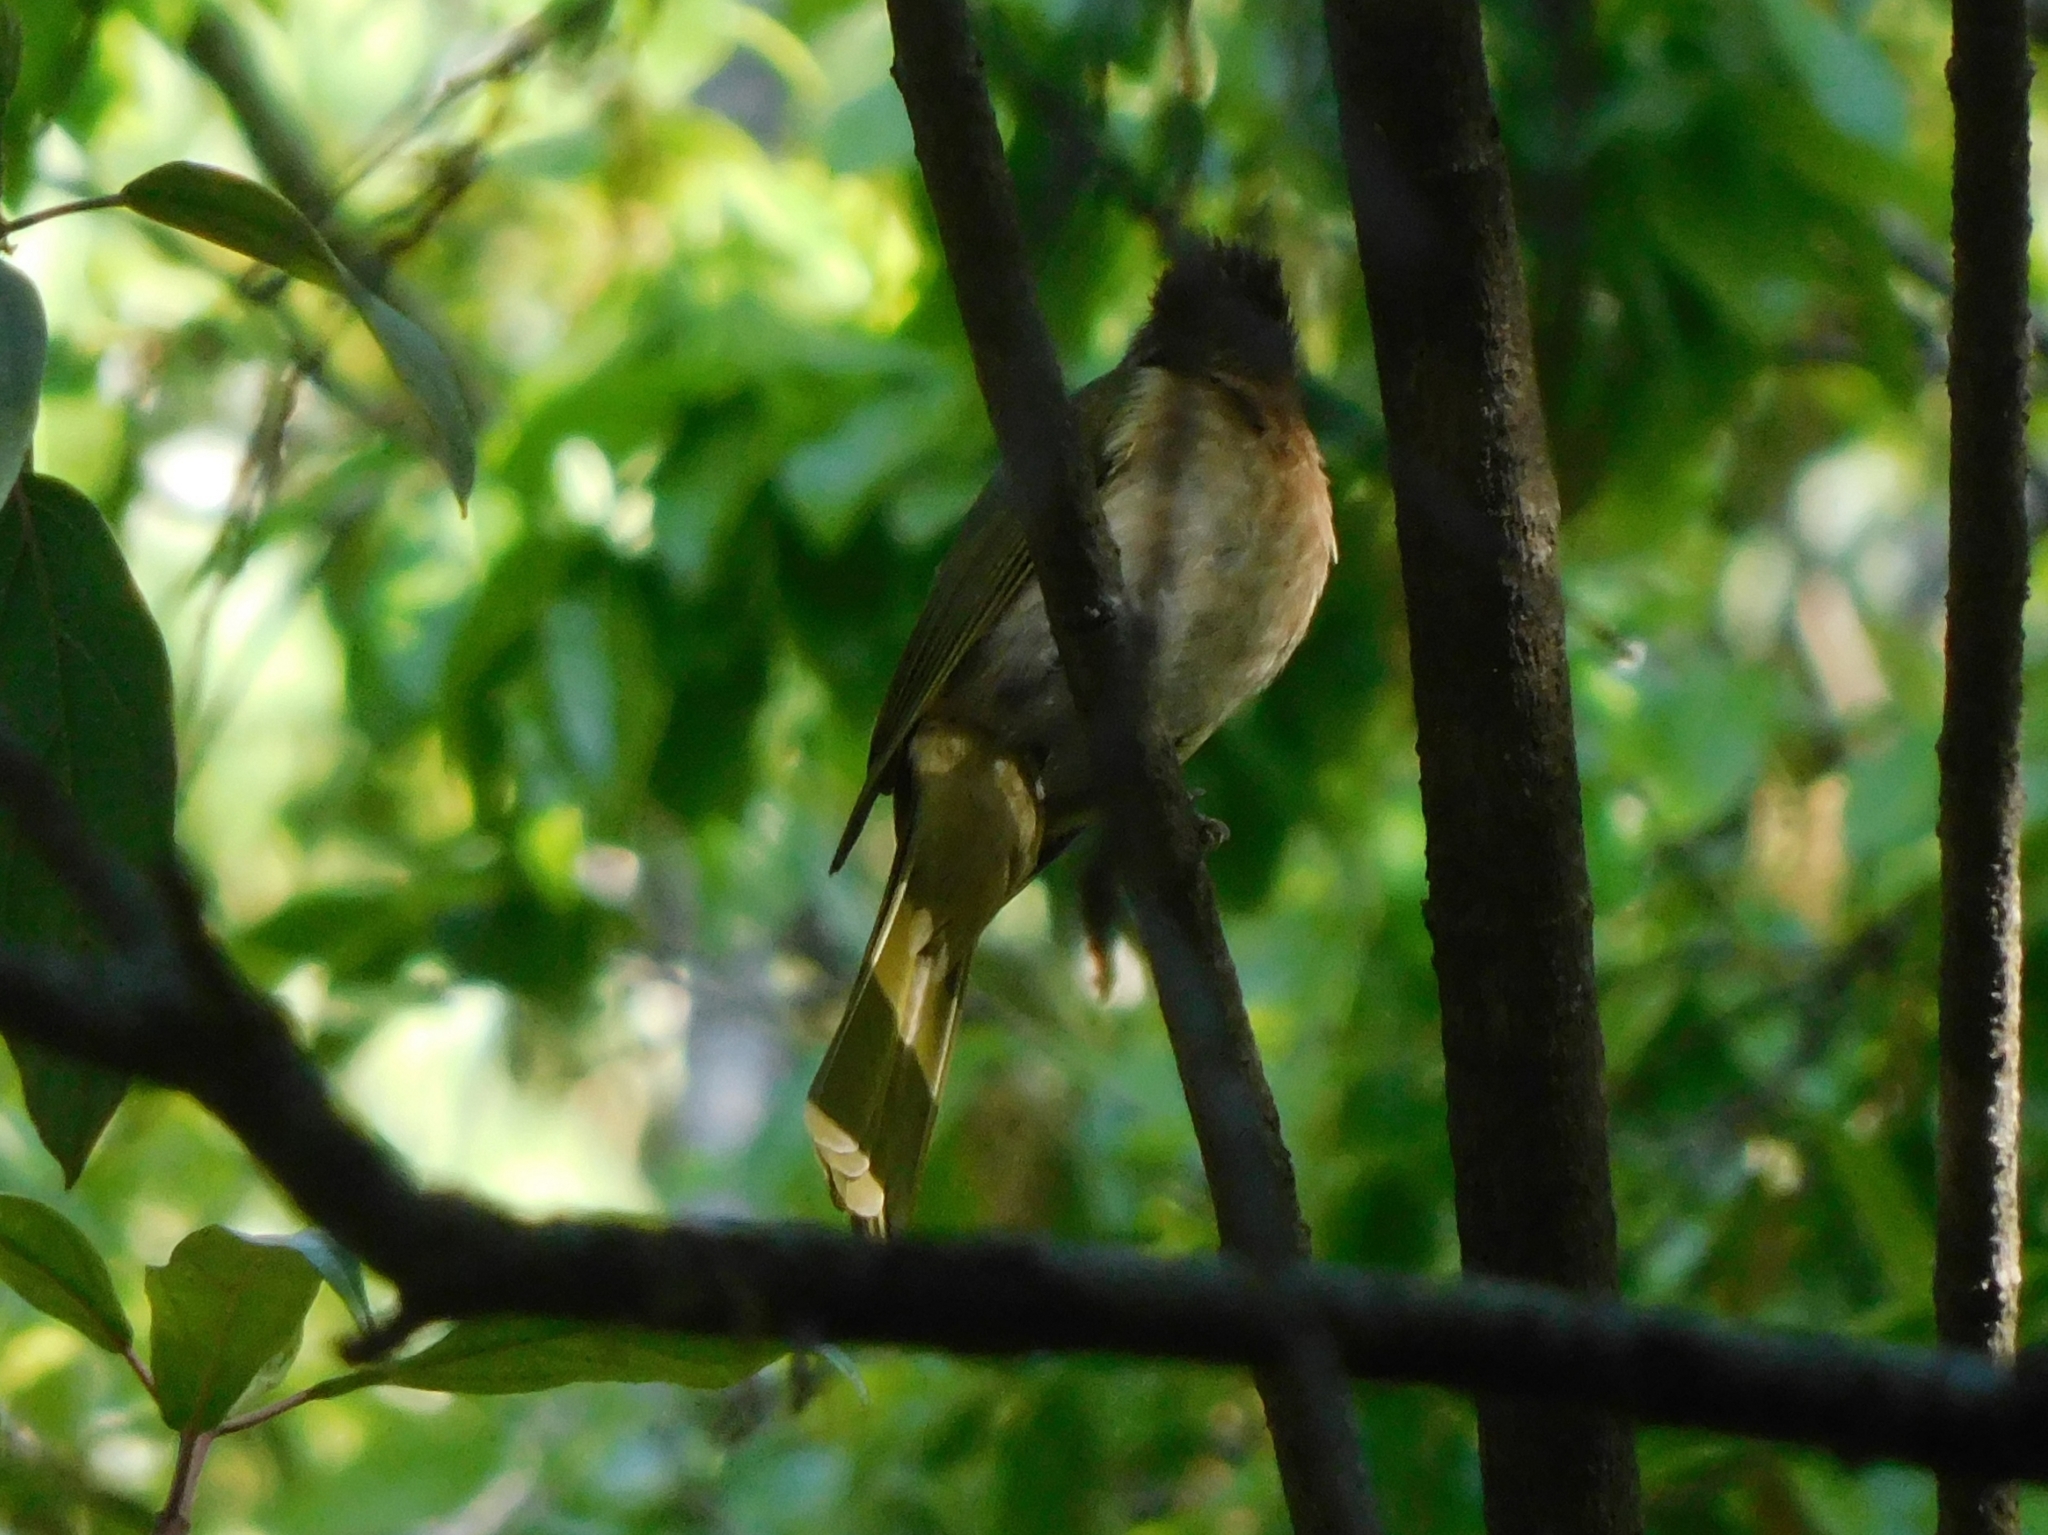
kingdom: Animalia
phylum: Chordata
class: Aves
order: Passeriformes
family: Pycnonotidae
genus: Ixos
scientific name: Ixos mcclellandii
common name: Mountain bulbul
